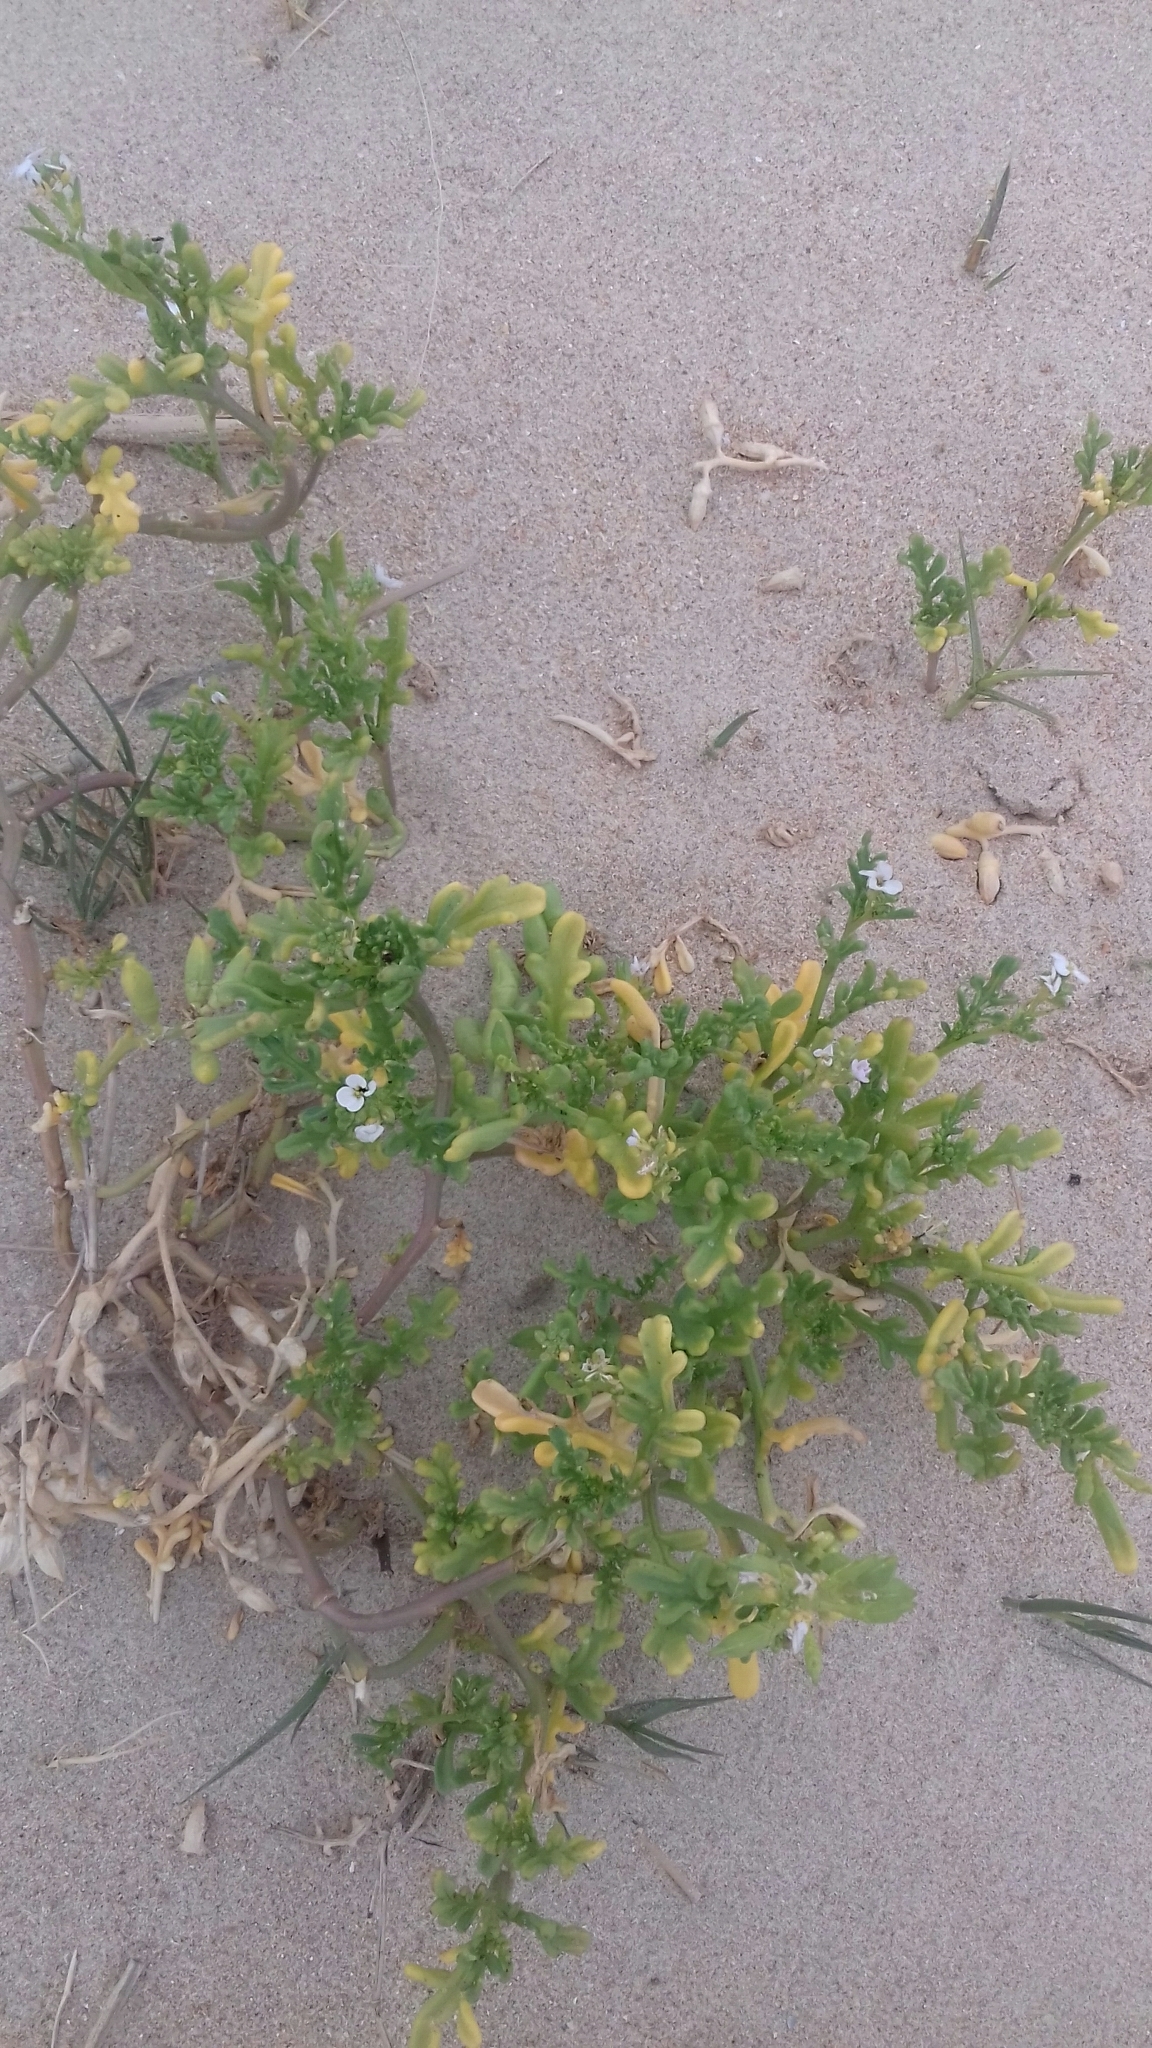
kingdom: Plantae
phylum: Tracheophyta
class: Magnoliopsida
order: Brassicales
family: Brassicaceae
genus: Cakile
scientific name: Cakile maritima
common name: Sea rocket
